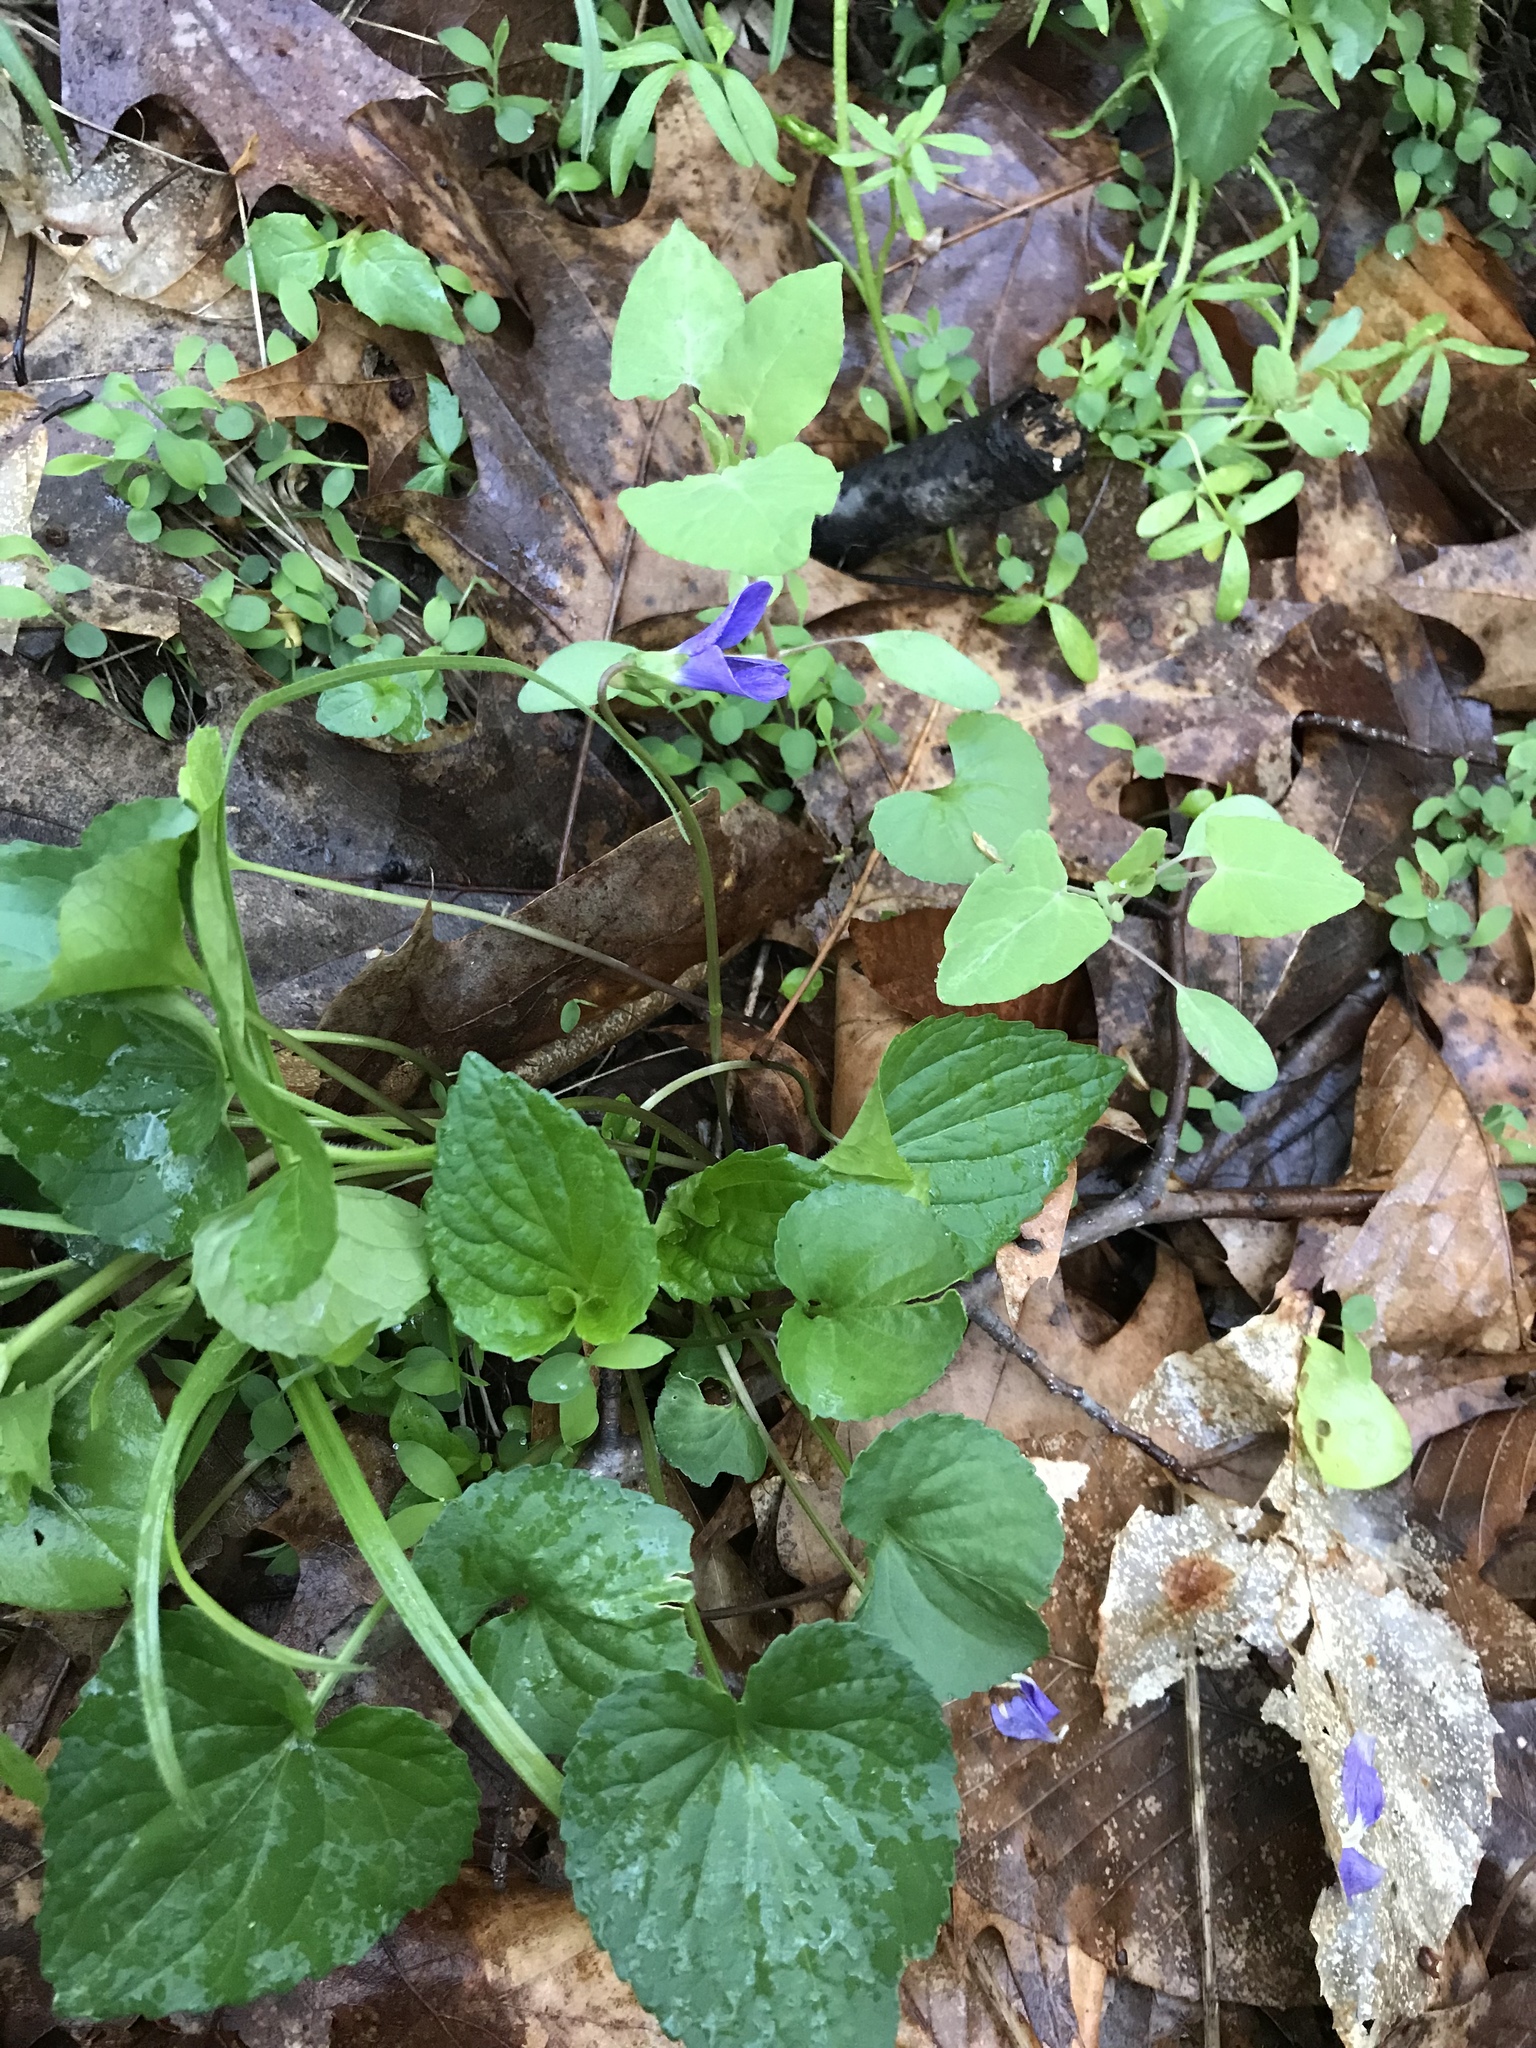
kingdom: Plantae
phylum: Tracheophyta
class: Magnoliopsida
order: Malpighiales
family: Violaceae
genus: Viola
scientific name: Viola cucullata
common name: Marsh blue violet
